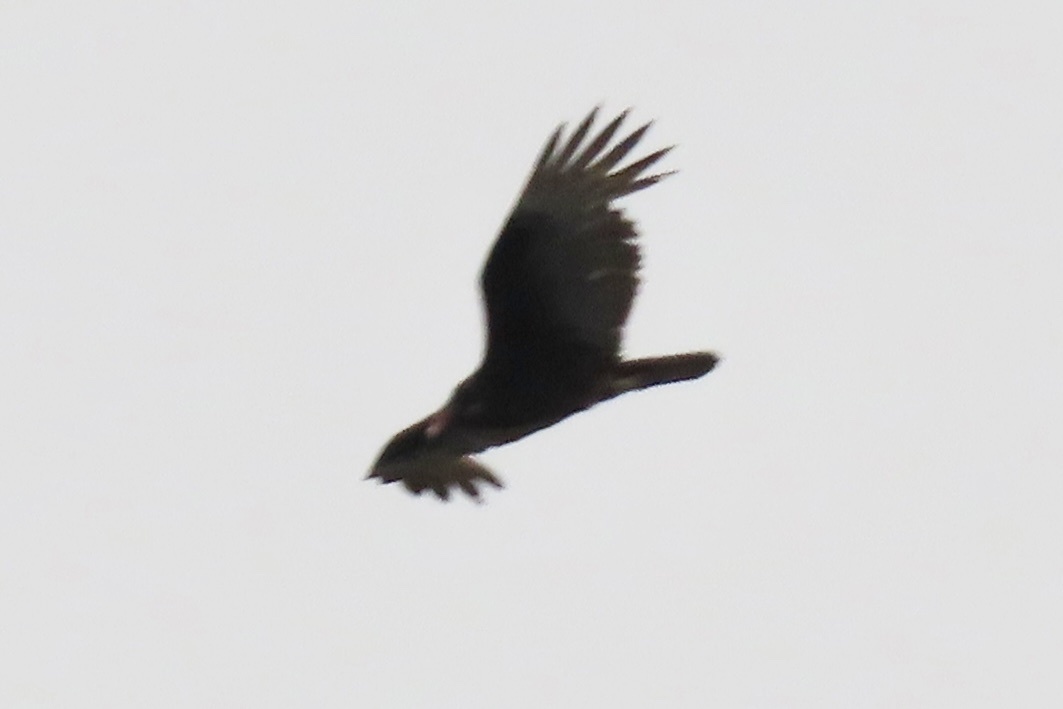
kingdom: Animalia
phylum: Chordata
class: Aves
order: Accipitriformes
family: Cathartidae
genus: Cathartes
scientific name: Cathartes aura
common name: Turkey vulture
